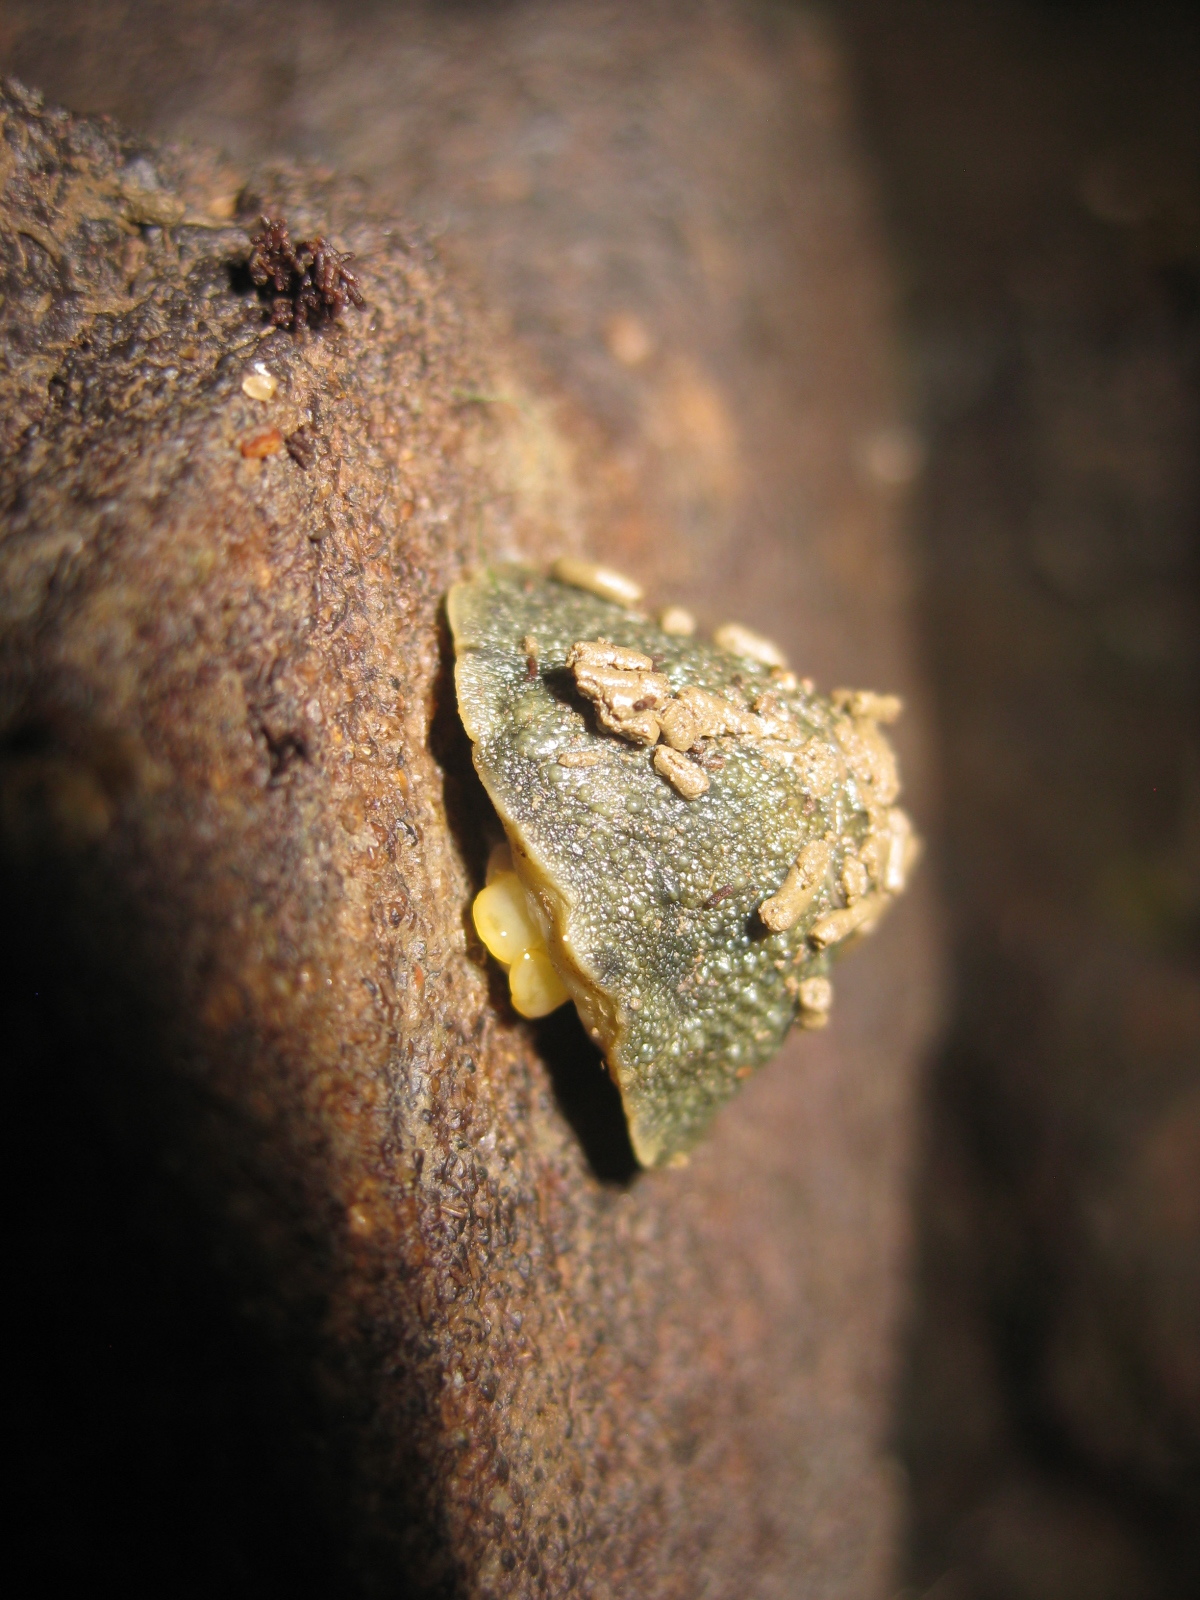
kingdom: Animalia
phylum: Mollusca
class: Gastropoda
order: Systellommatophora
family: Onchidiidae
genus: Onchidella
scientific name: Onchidella nigricans
